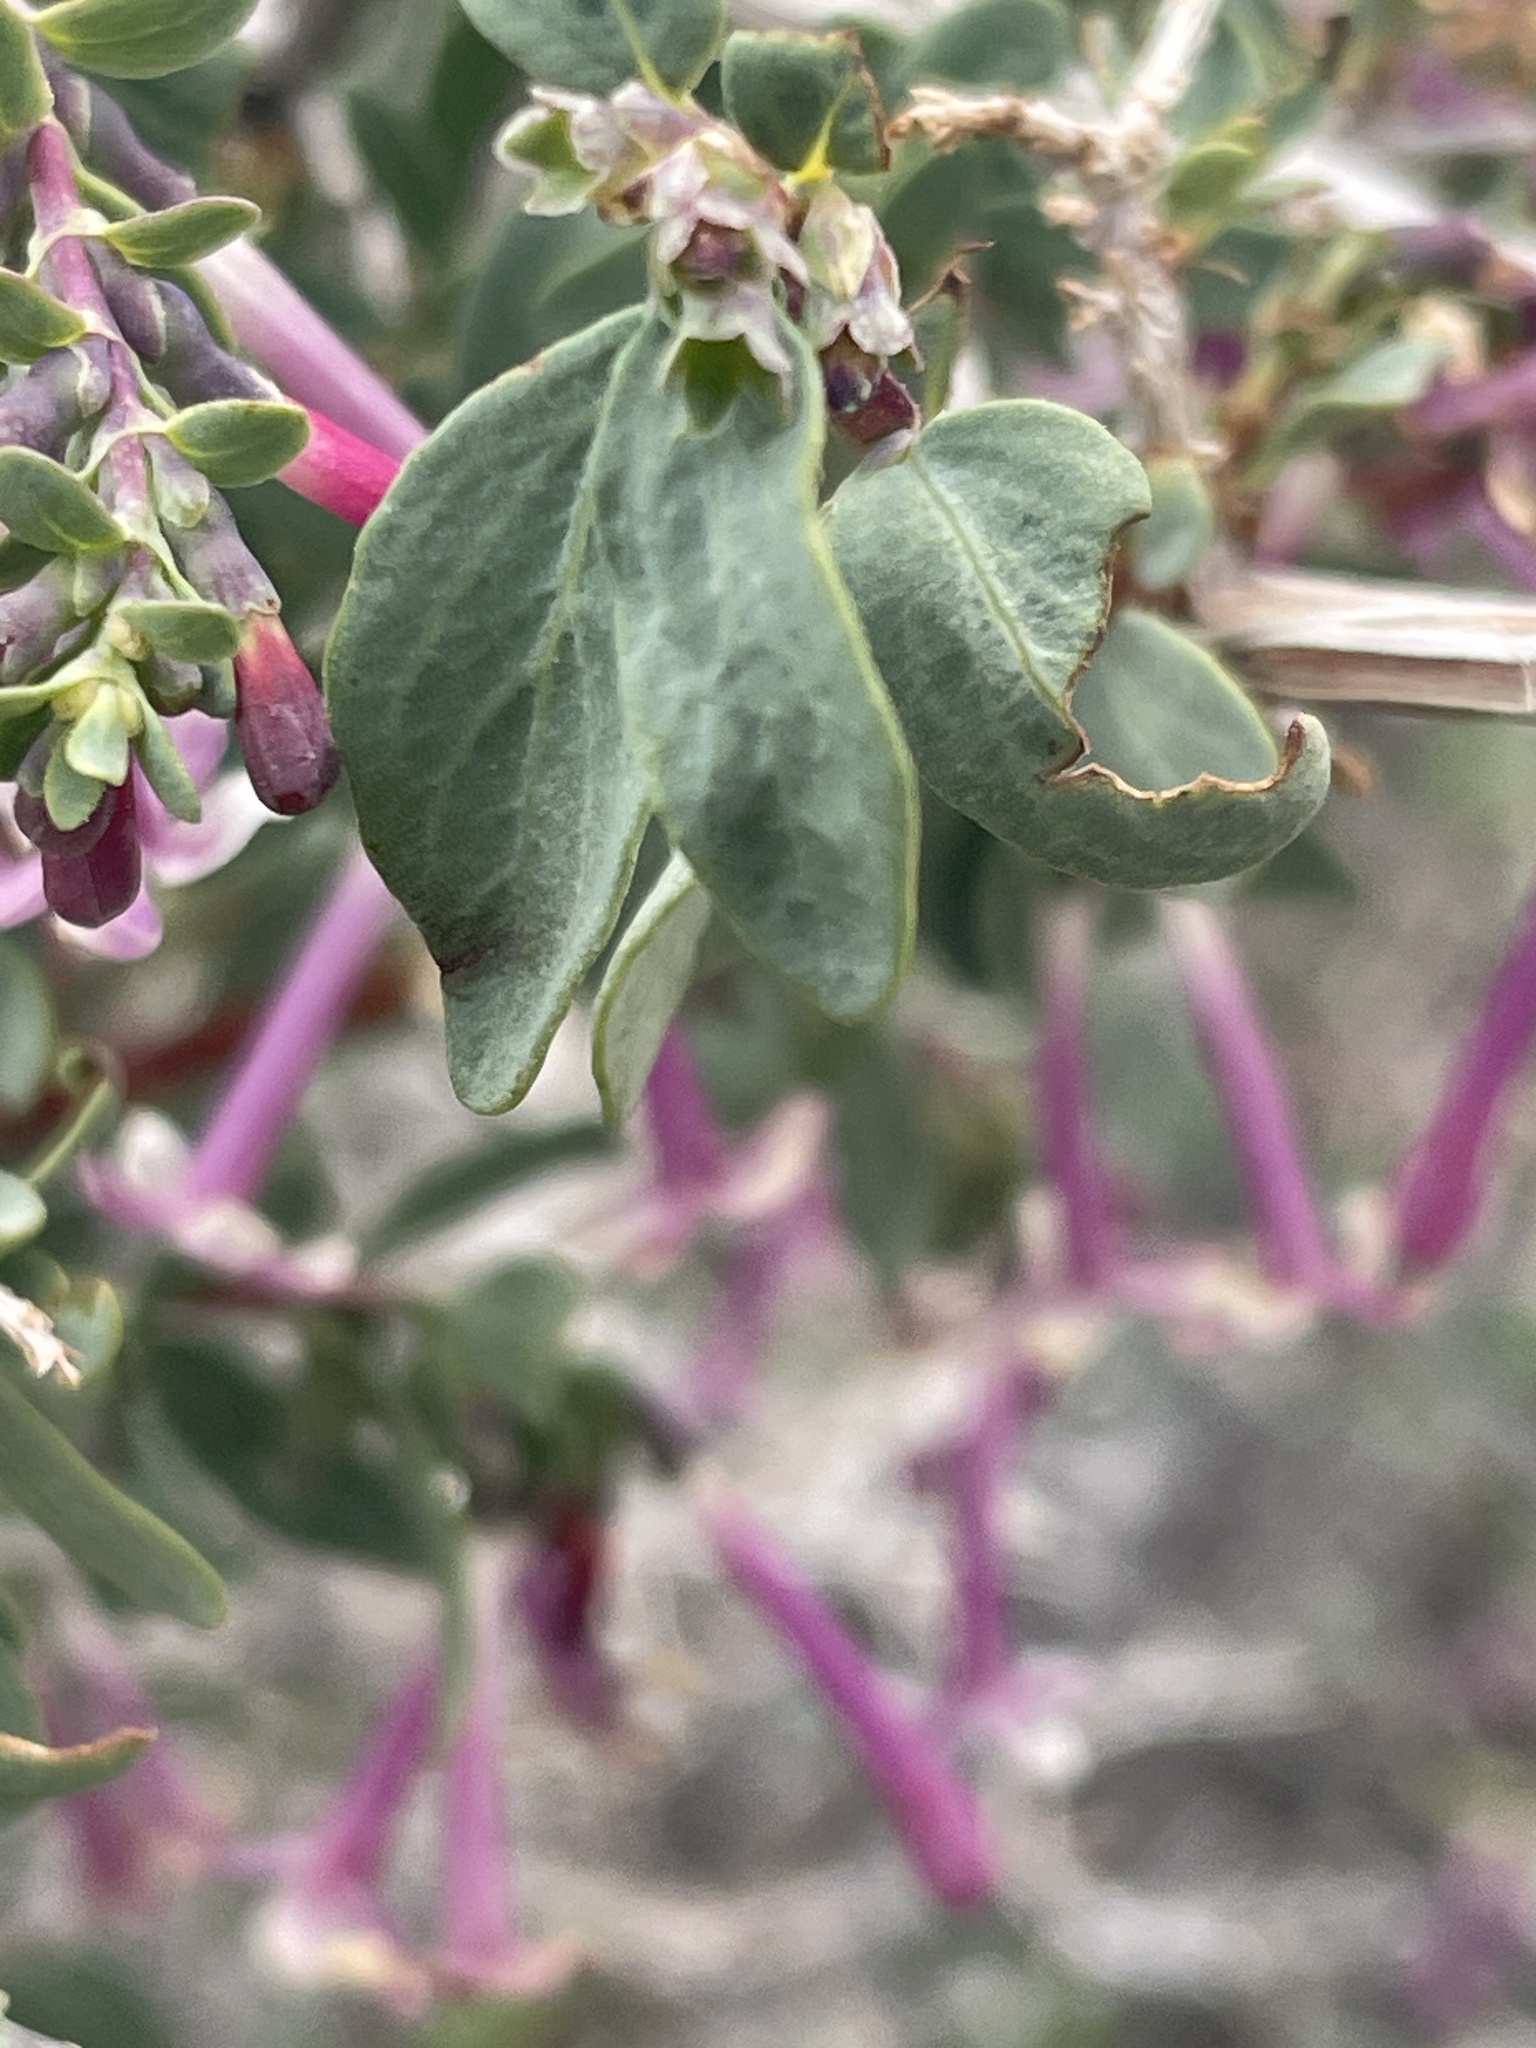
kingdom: Plantae
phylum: Tracheophyta
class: Magnoliopsida
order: Dipsacales
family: Caprifoliaceae
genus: Symphoricarpos
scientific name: Symphoricarpos longiflorus
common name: Fragrant snowberry
